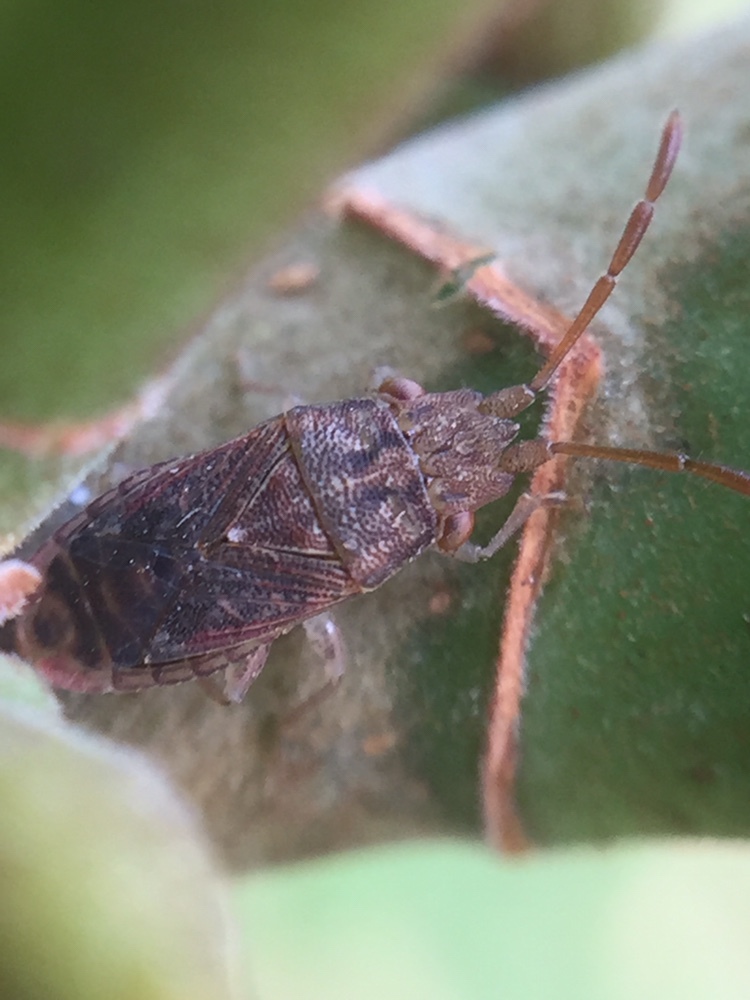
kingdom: Animalia
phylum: Arthropoda
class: Insecta
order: Hemiptera
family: Meschiidae
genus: Meschia
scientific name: Meschia barrowensis
